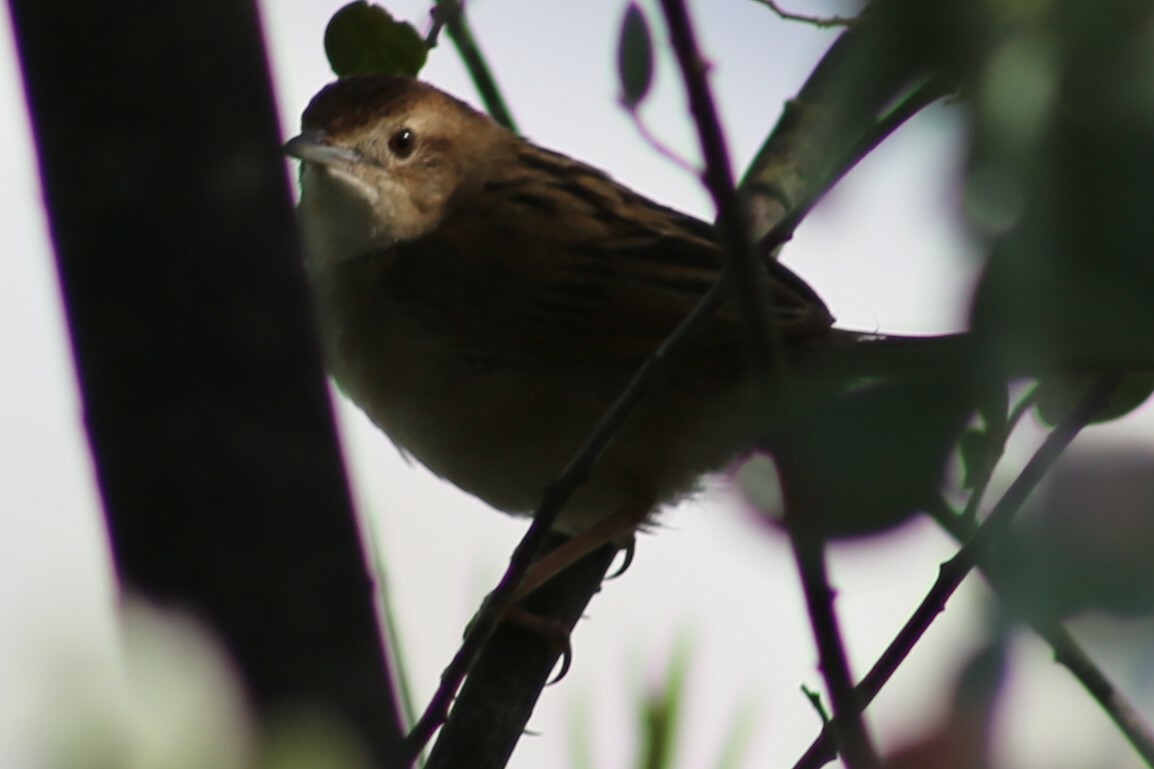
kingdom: Animalia
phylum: Chordata
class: Aves
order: Passeriformes
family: Locustellidae
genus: Megalurus
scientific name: Megalurus timoriensis
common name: Tawny grassbird
